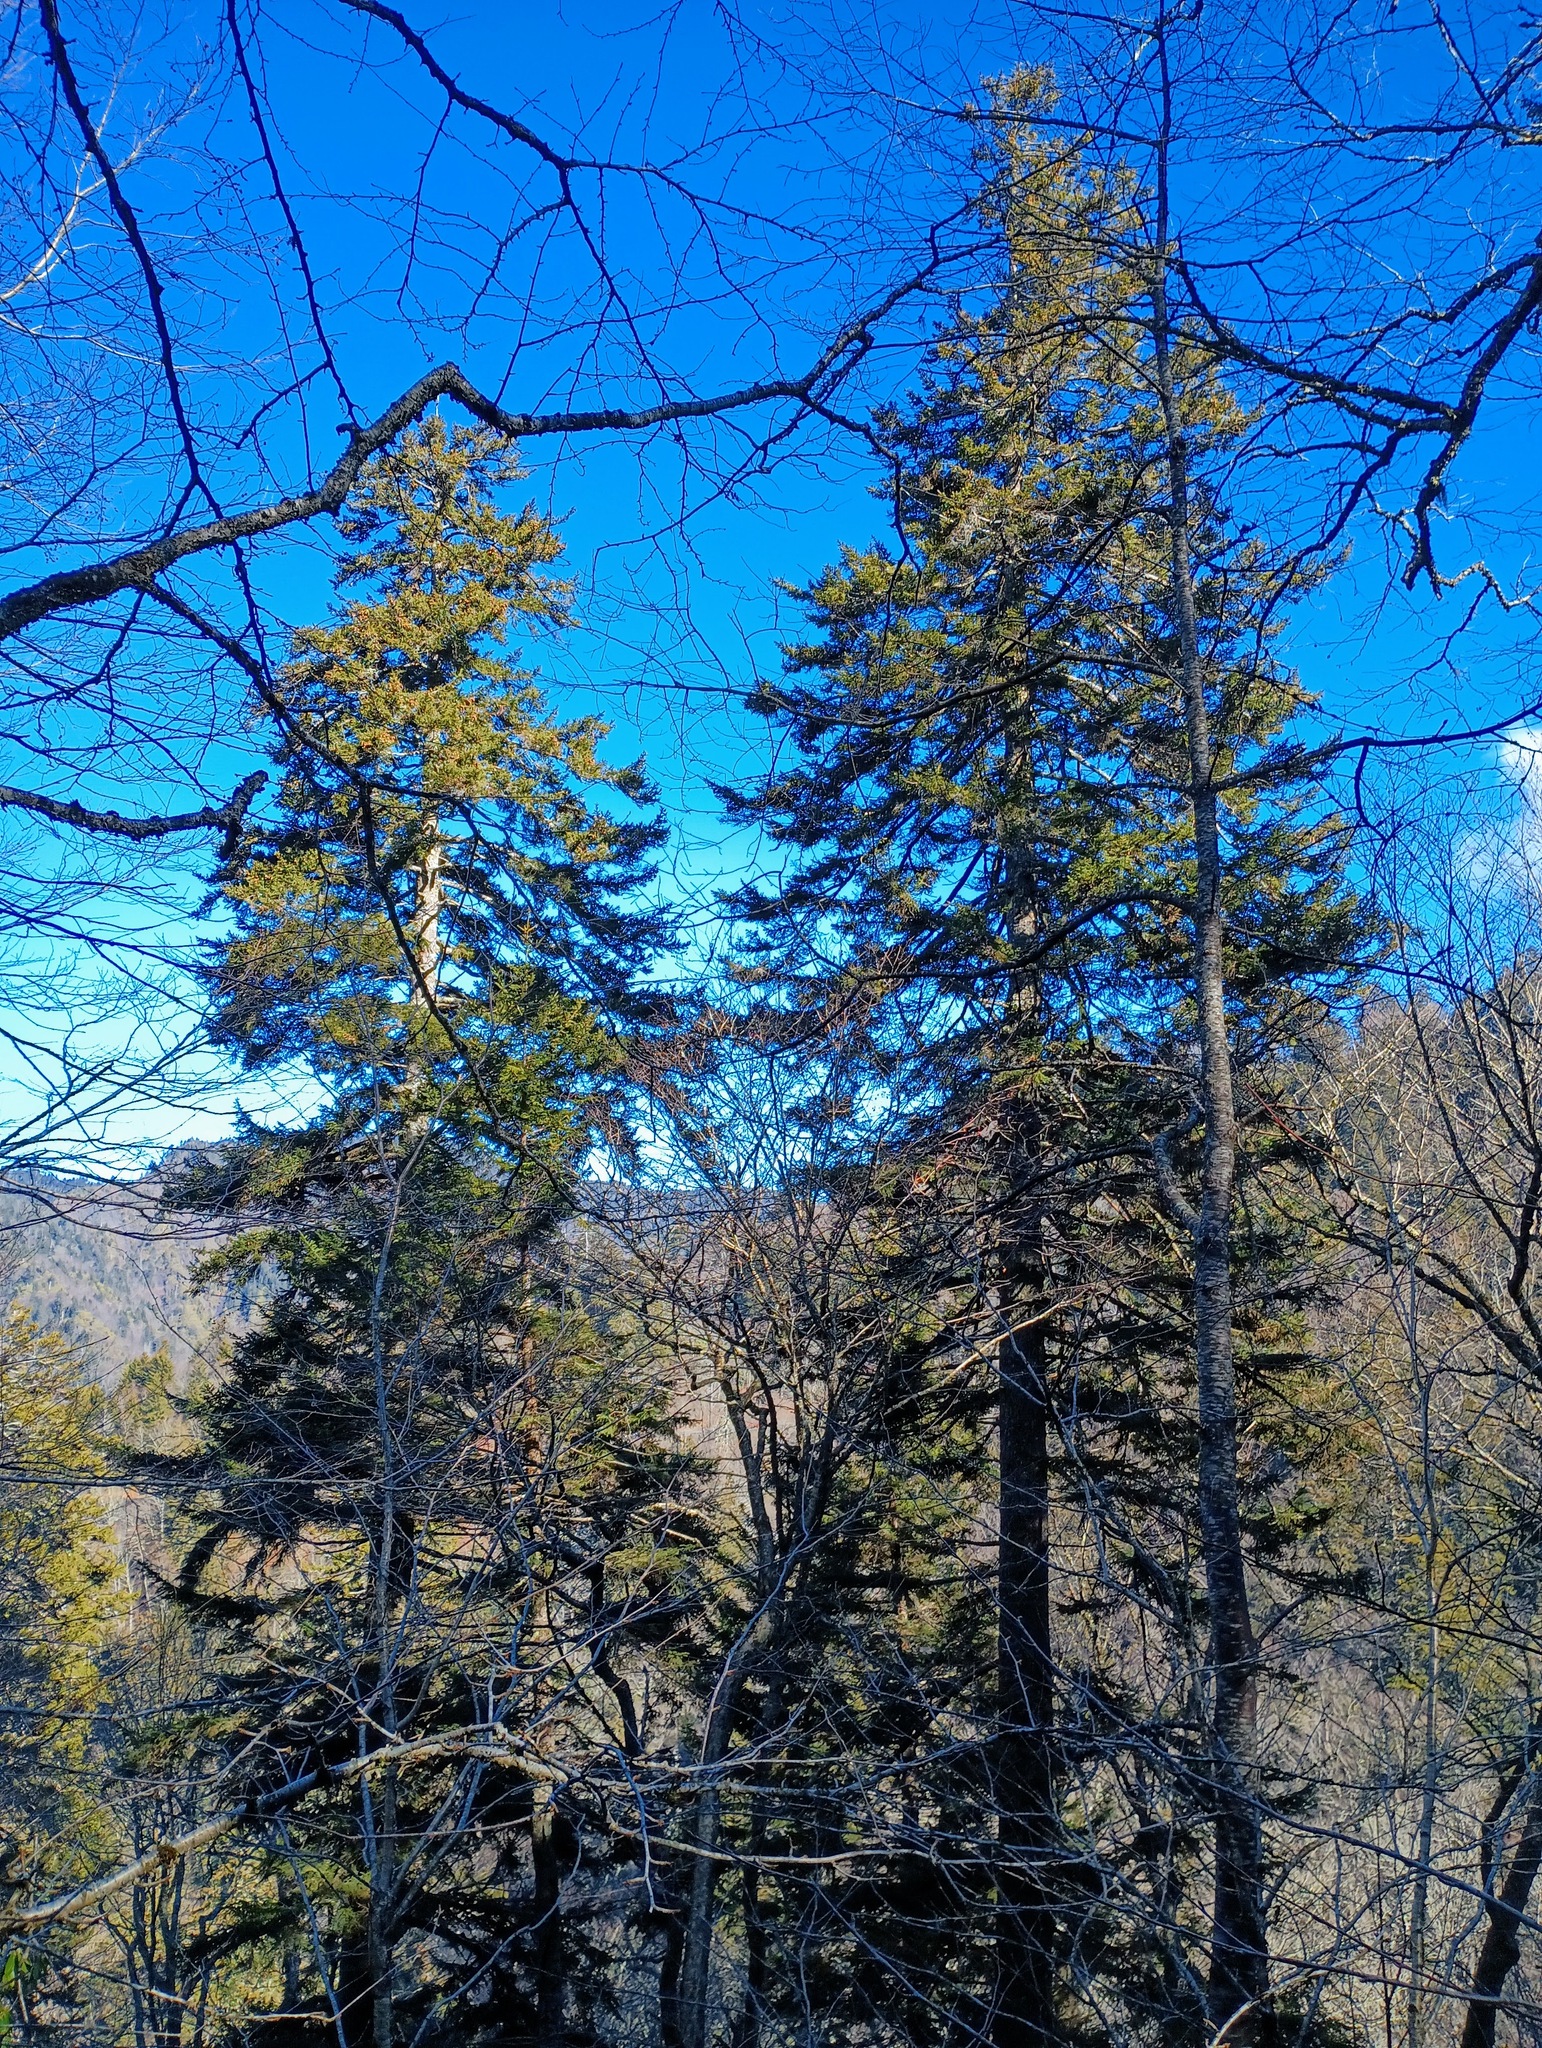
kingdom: Plantae
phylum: Tracheophyta
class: Pinopsida
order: Pinales
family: Pinaceae
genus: Picea
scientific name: Picea rubens
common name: Red spruce
